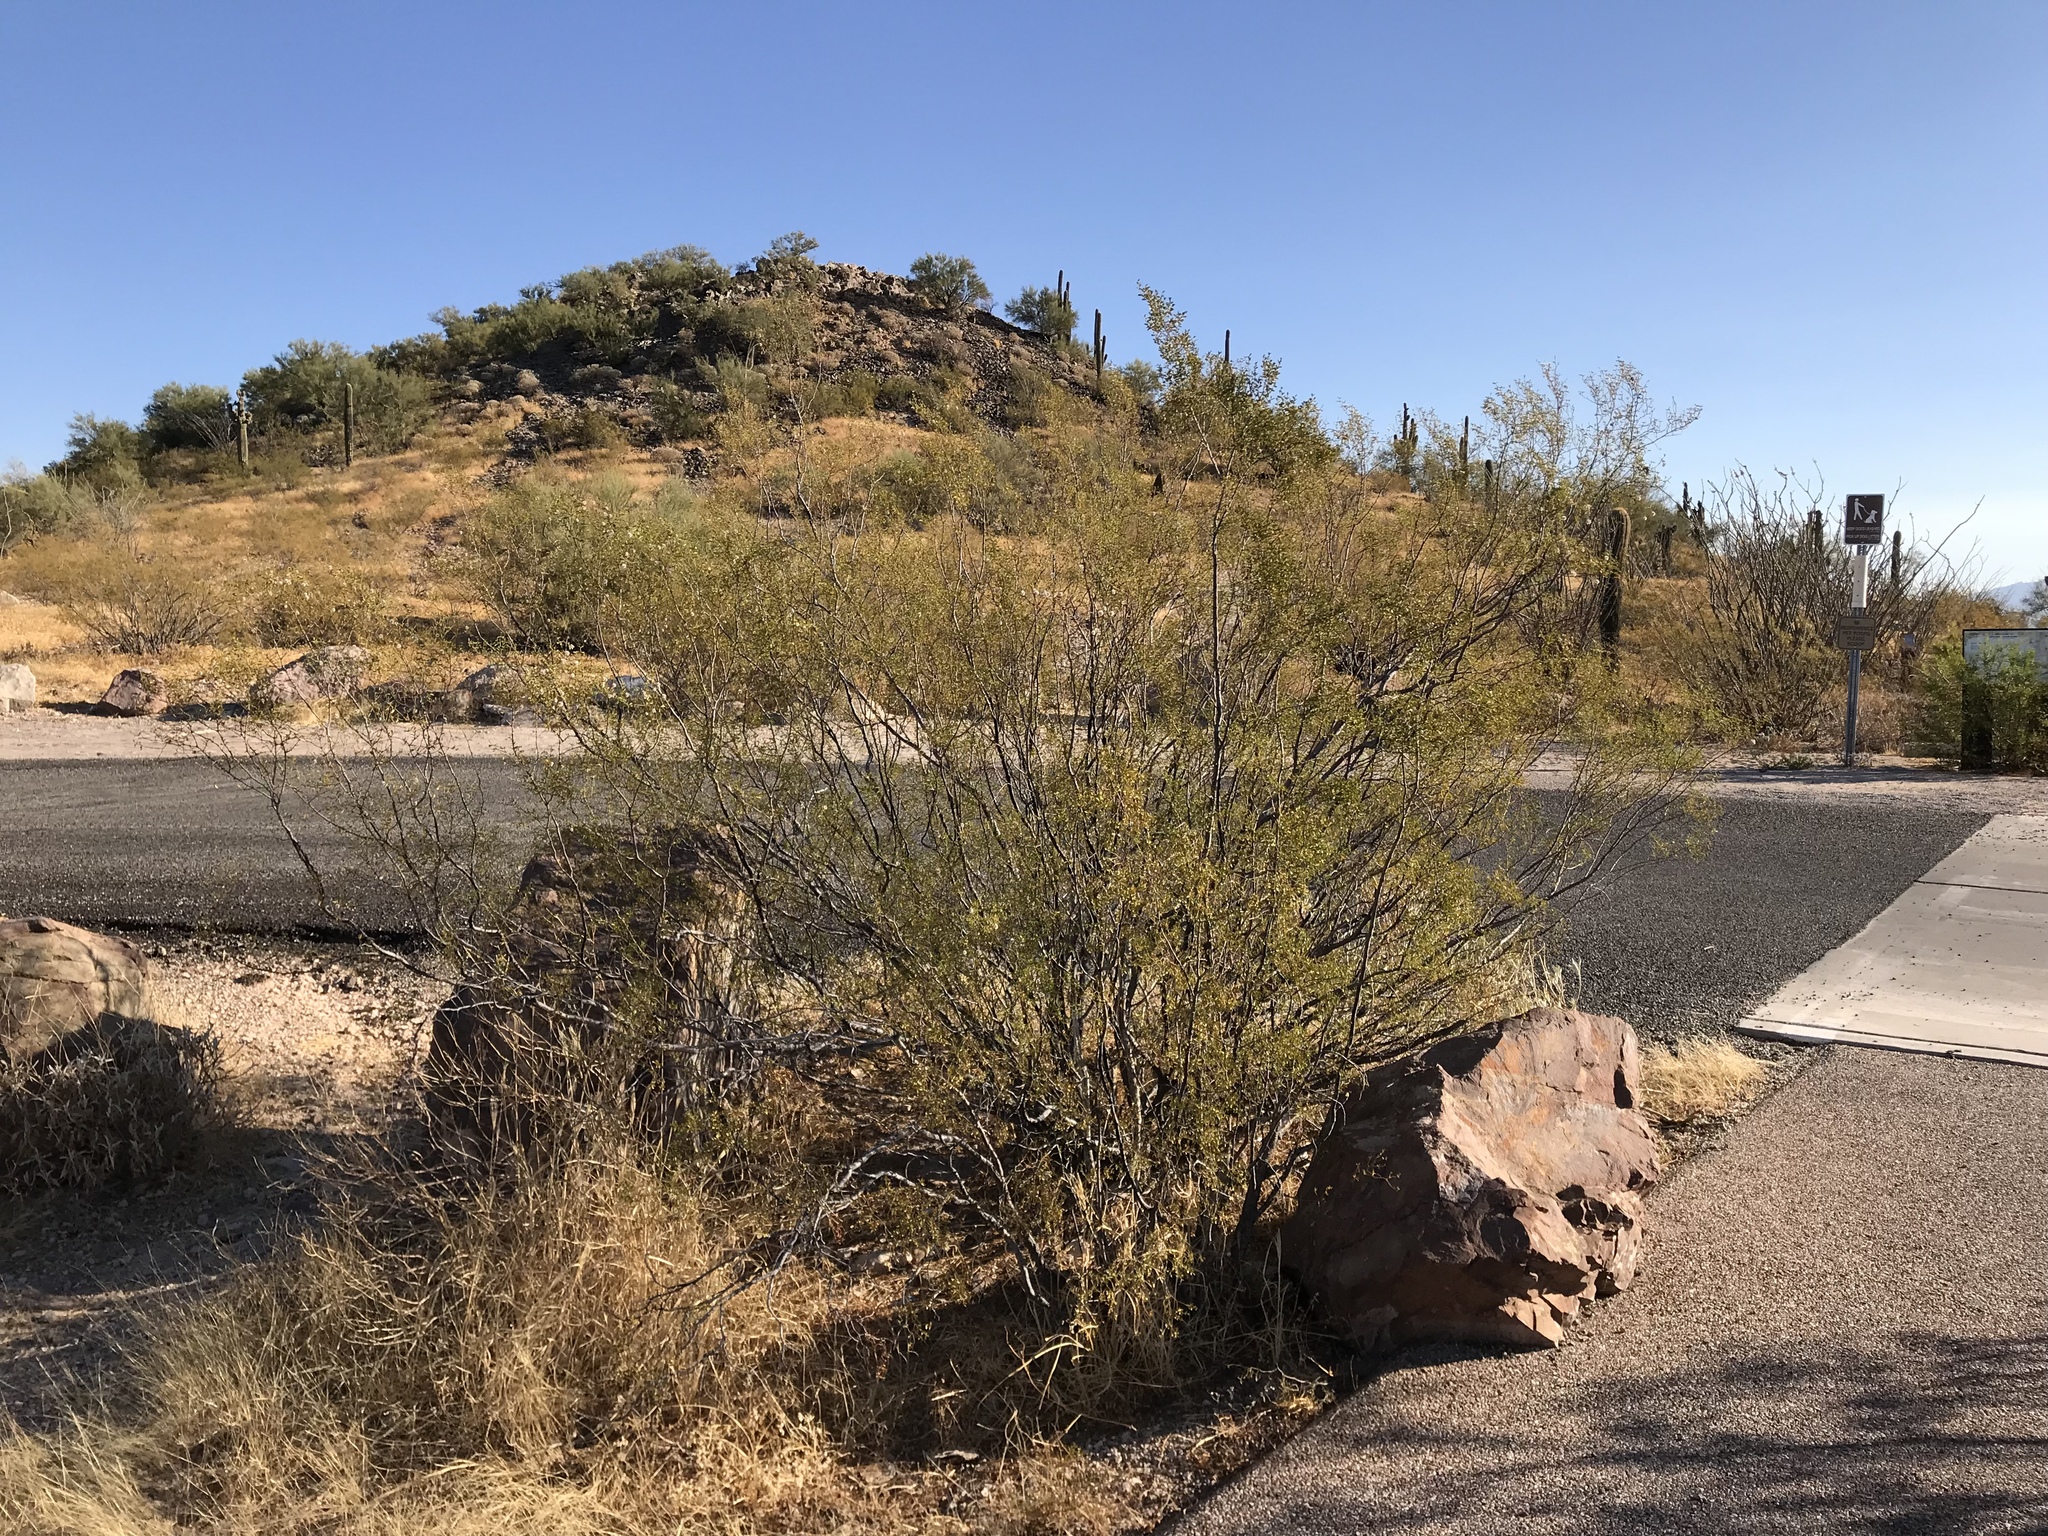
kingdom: Plantae
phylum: Tracheophyta
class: Magnoliopsida
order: Zygophyllales
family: Zygophyllaceae
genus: Larrea
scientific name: Larrea tridentata
